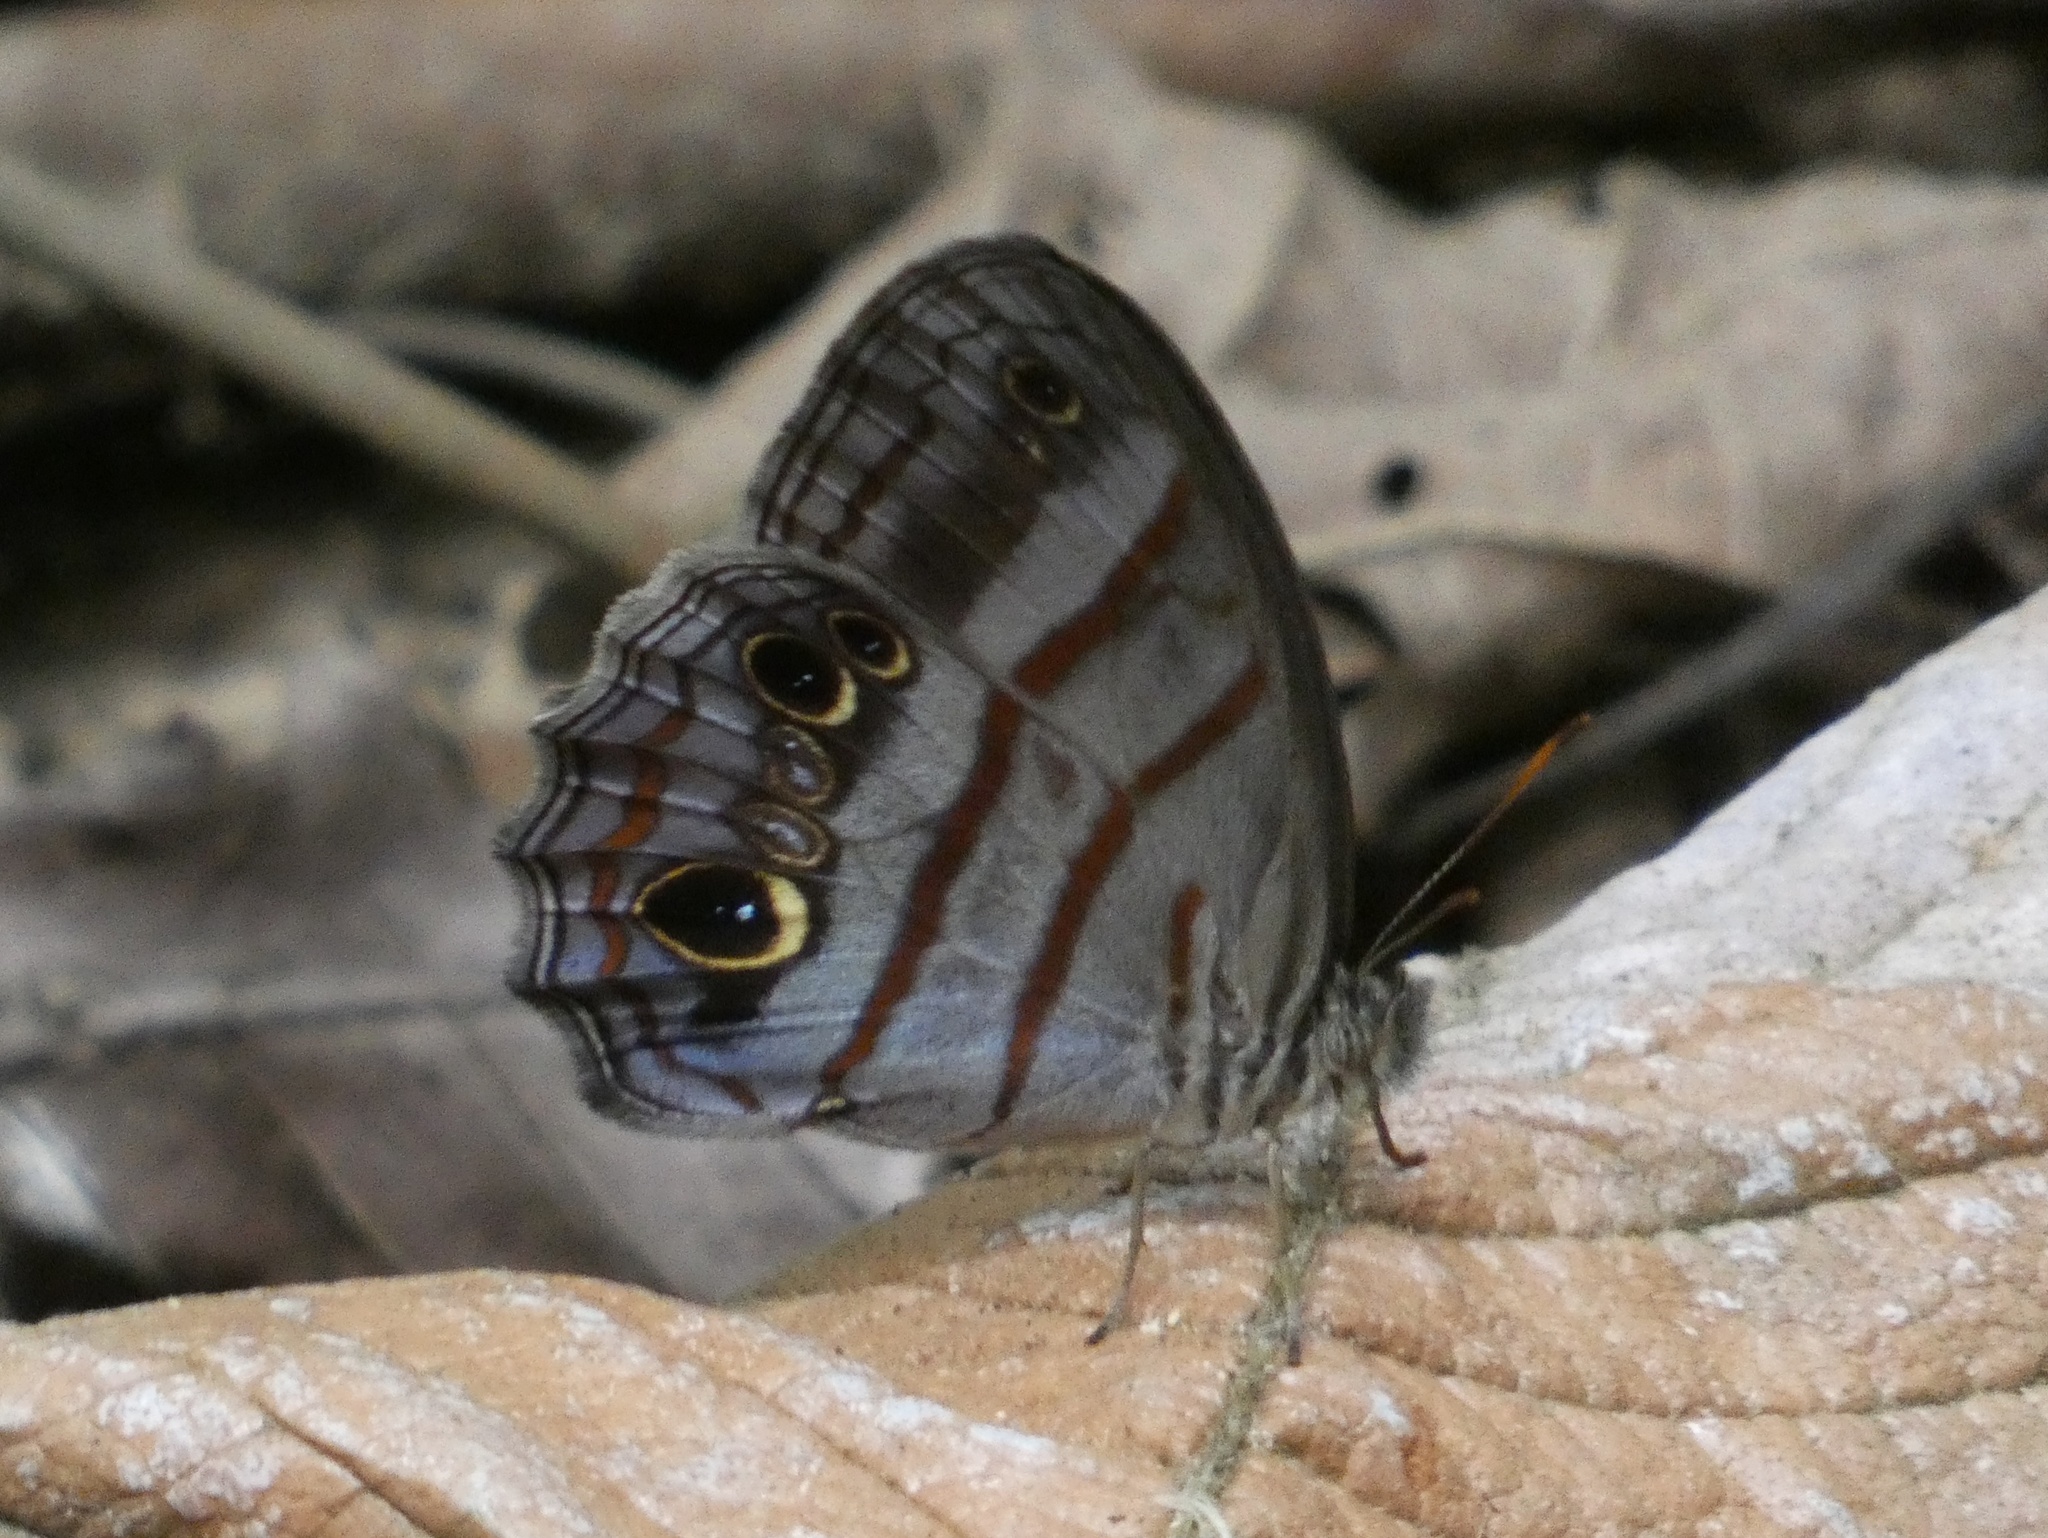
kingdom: Animalia
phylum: Arthropoda
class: Insecta
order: Lepidoptera
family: Nymphalidae
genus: Magneuptychia
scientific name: Magneuptychia libye
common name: Blue-gray satyr
